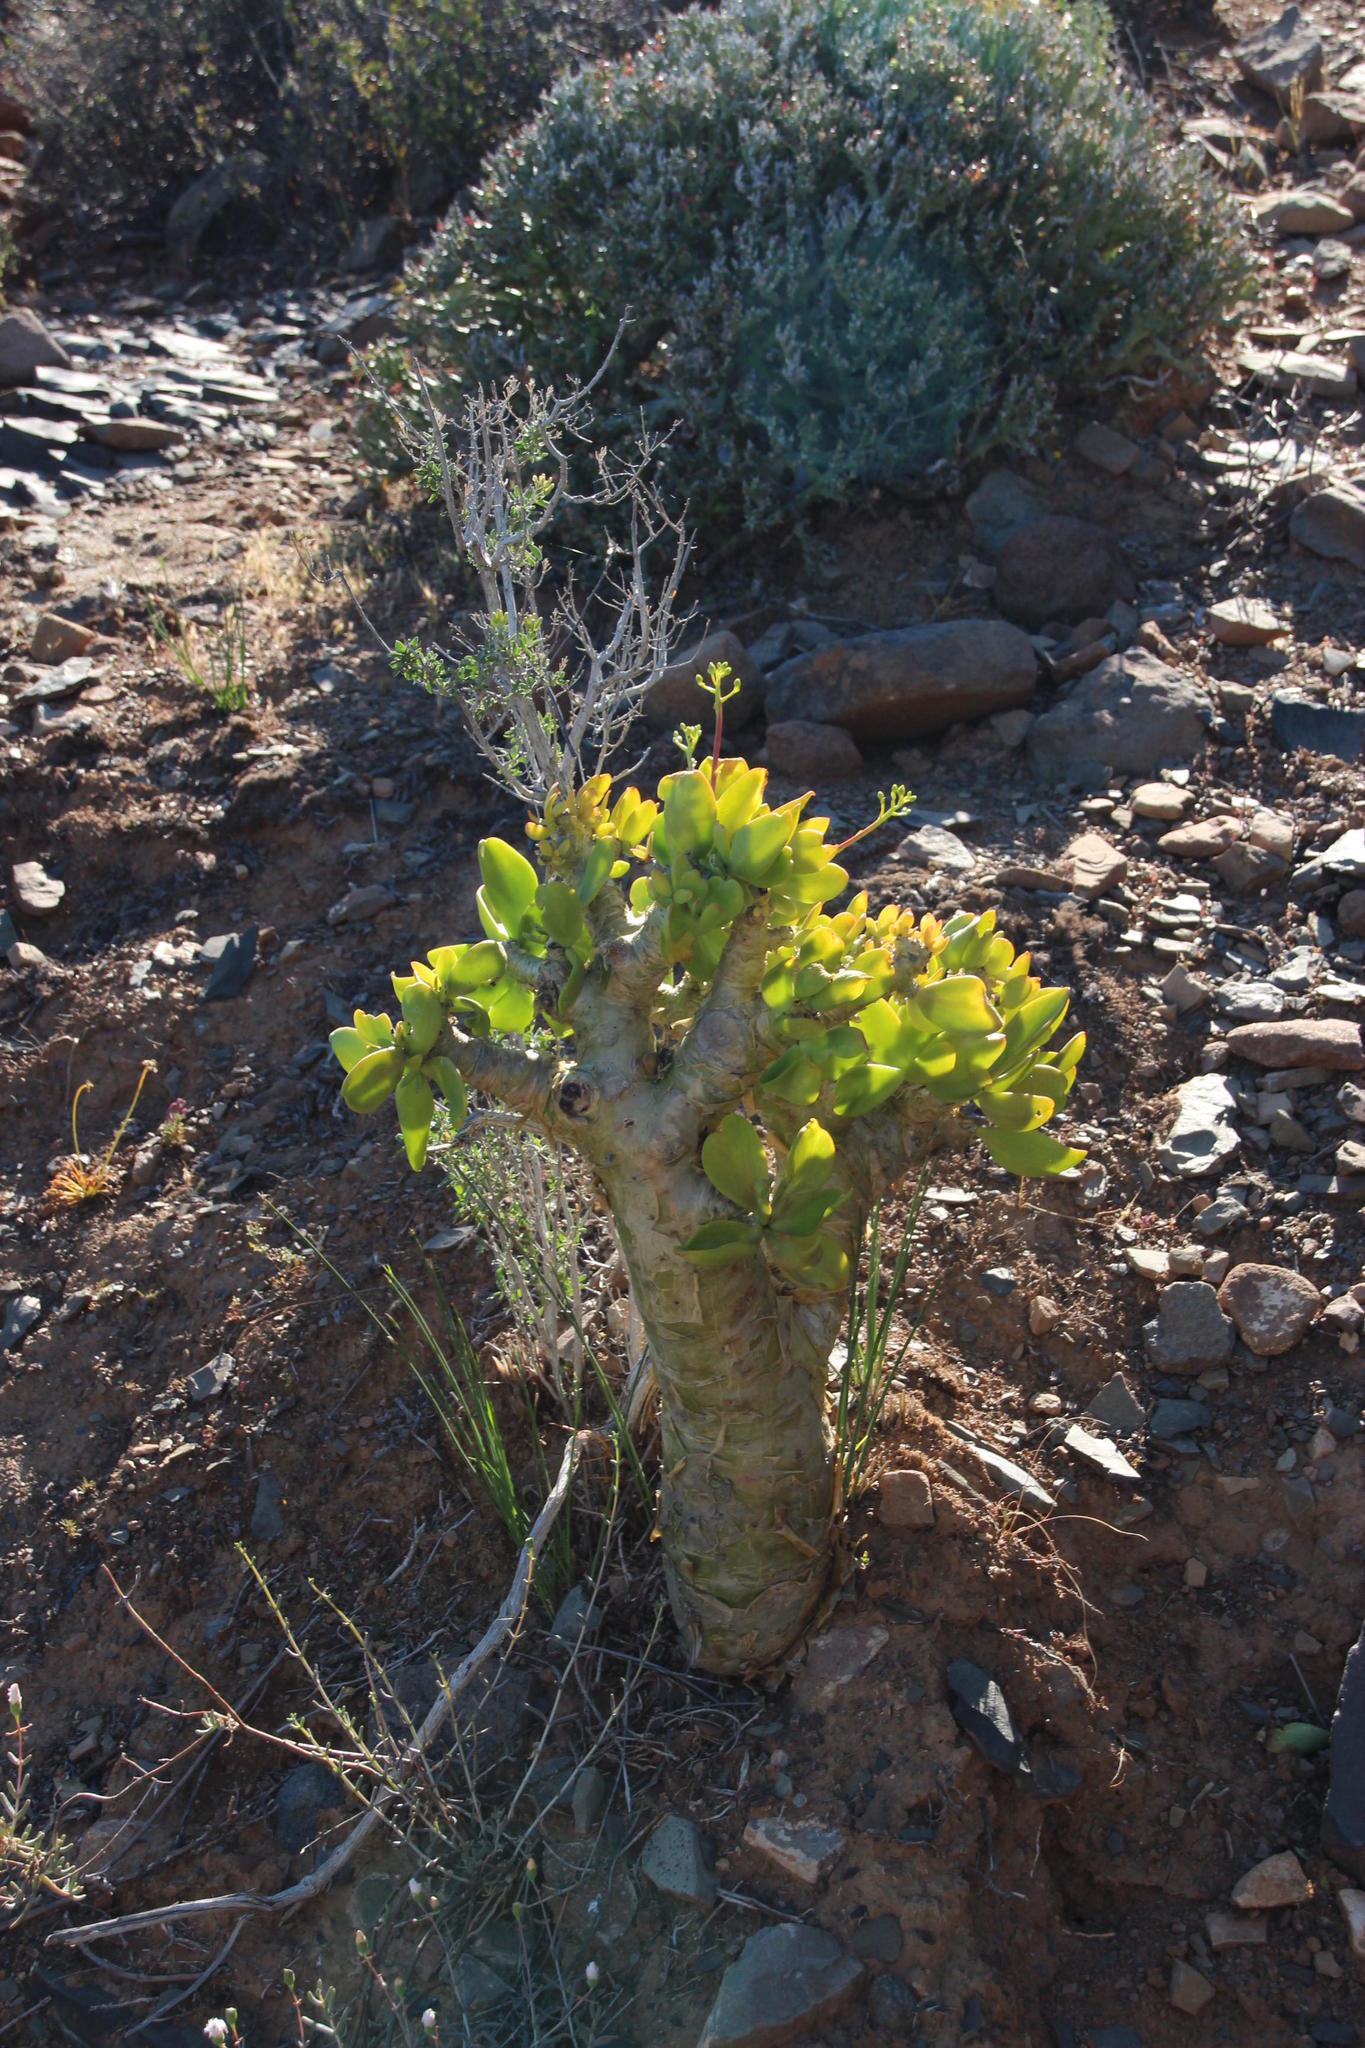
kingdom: Plantae
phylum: Tracheophyta
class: Magnoliopsida
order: Saxifragales
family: Crassulaceae
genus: Tylecodon
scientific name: Tylecodon paniculatus
